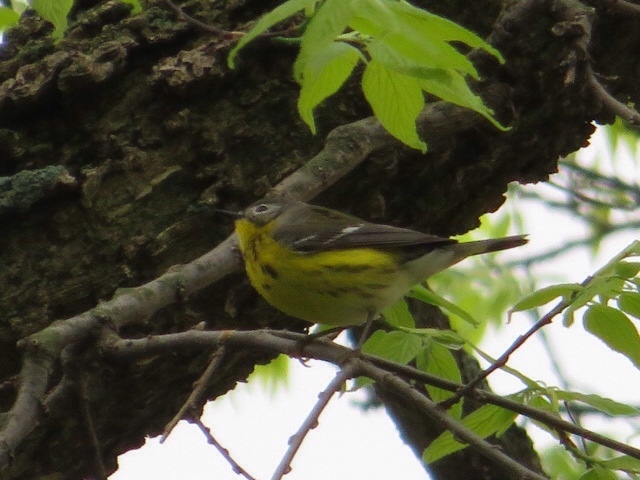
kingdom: Animalia
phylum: Chordata
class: Aves
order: Passeriformes
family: Parulidae
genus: Setophaga
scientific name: Setophaga magnolia
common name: Magnolia warbler
